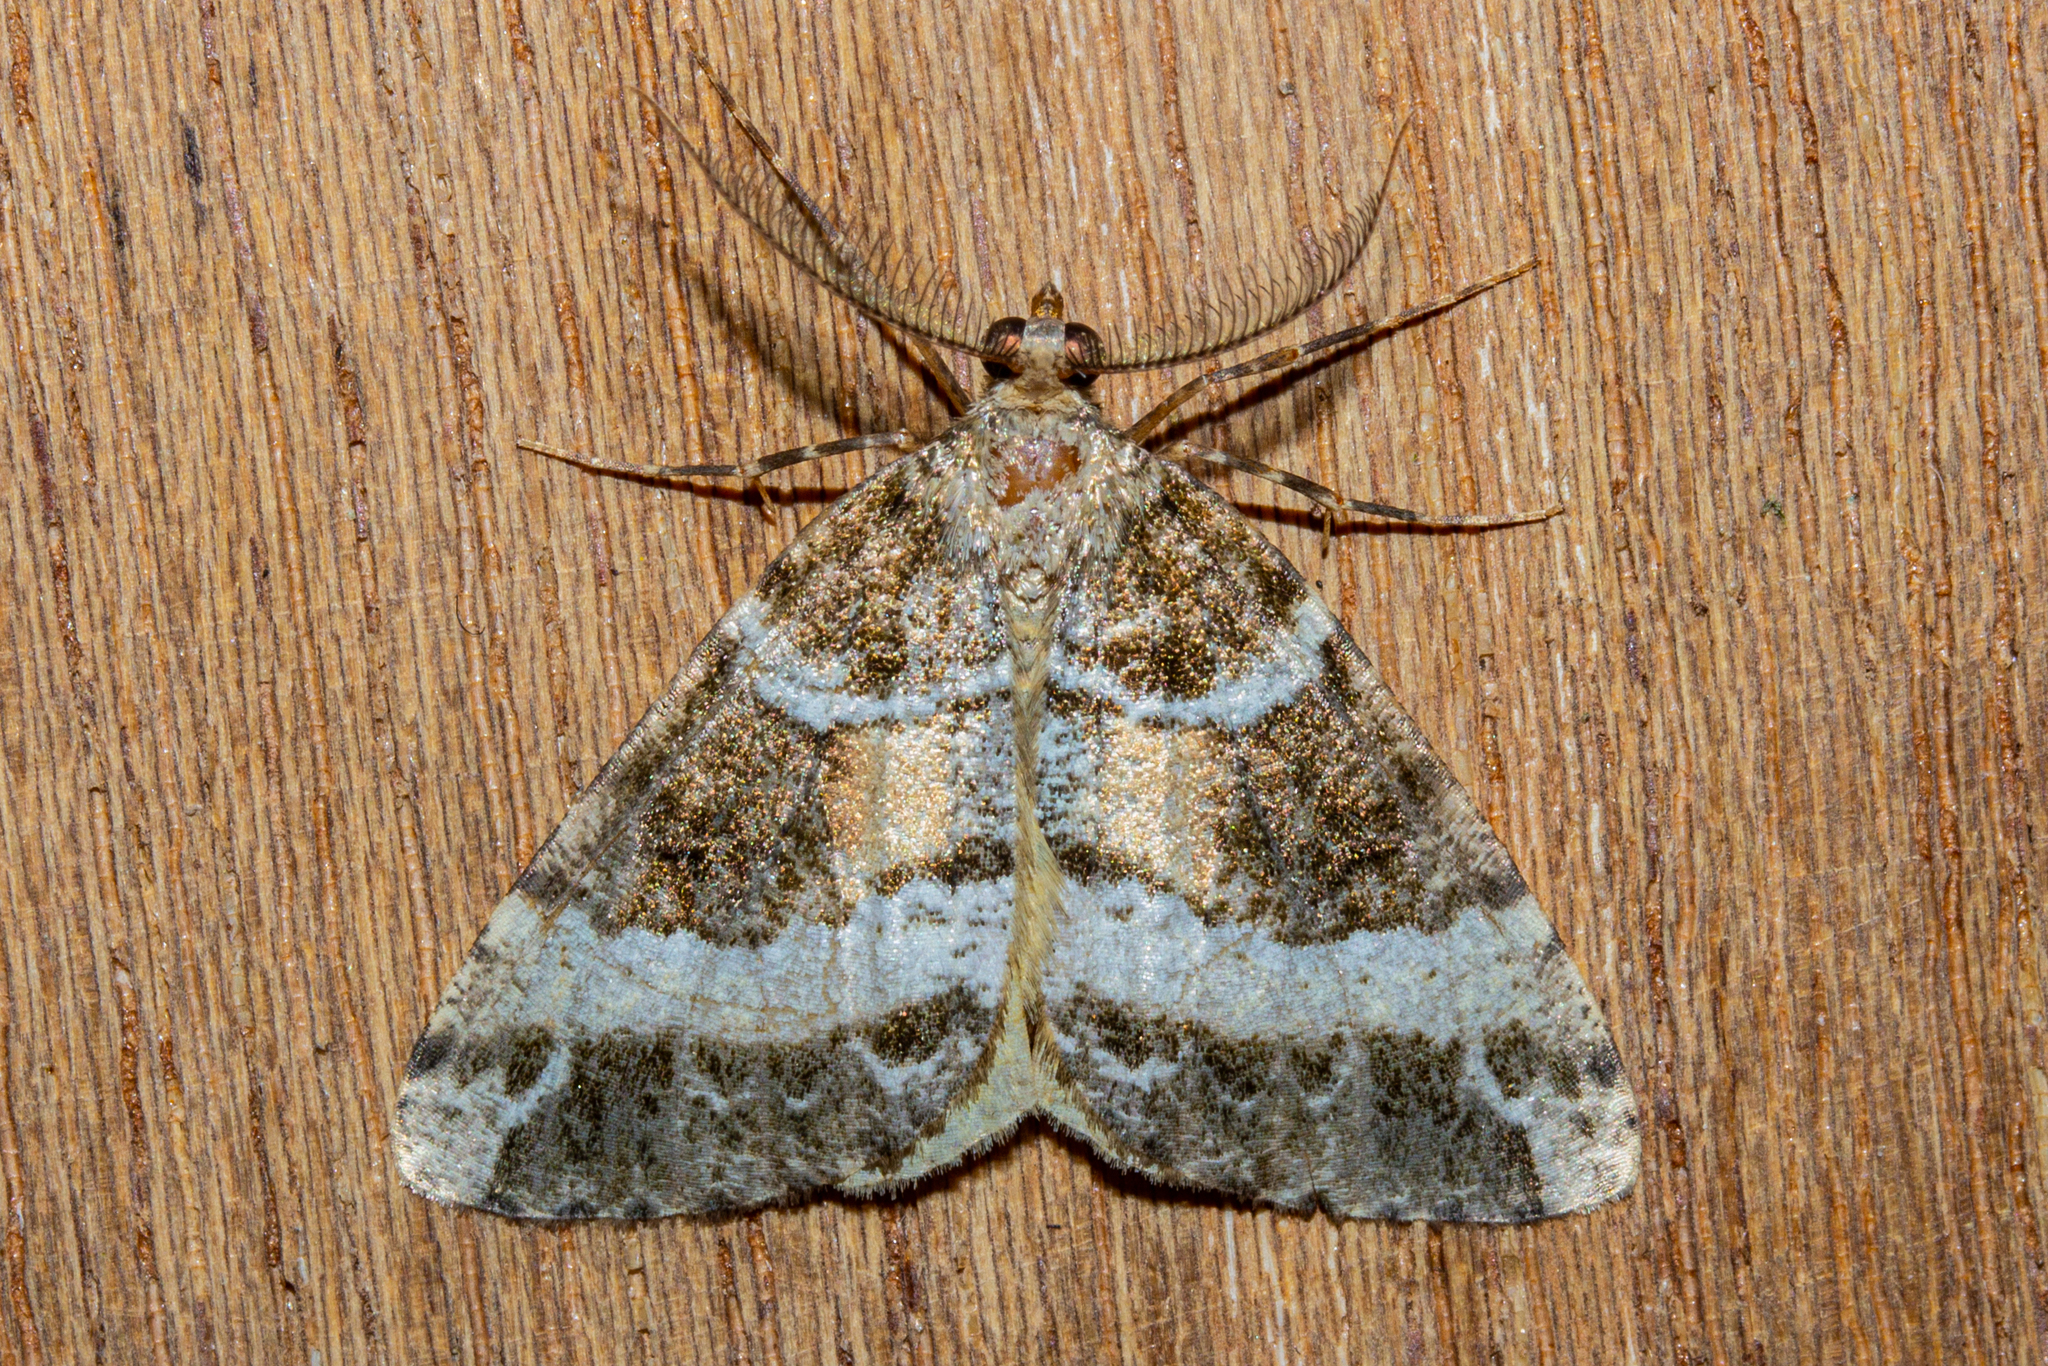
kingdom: Animalia
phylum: Arthropoda
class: Insecta
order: Lepidoptera
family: Geometridae
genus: Pseudocoremia
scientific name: Pseudocoremia
